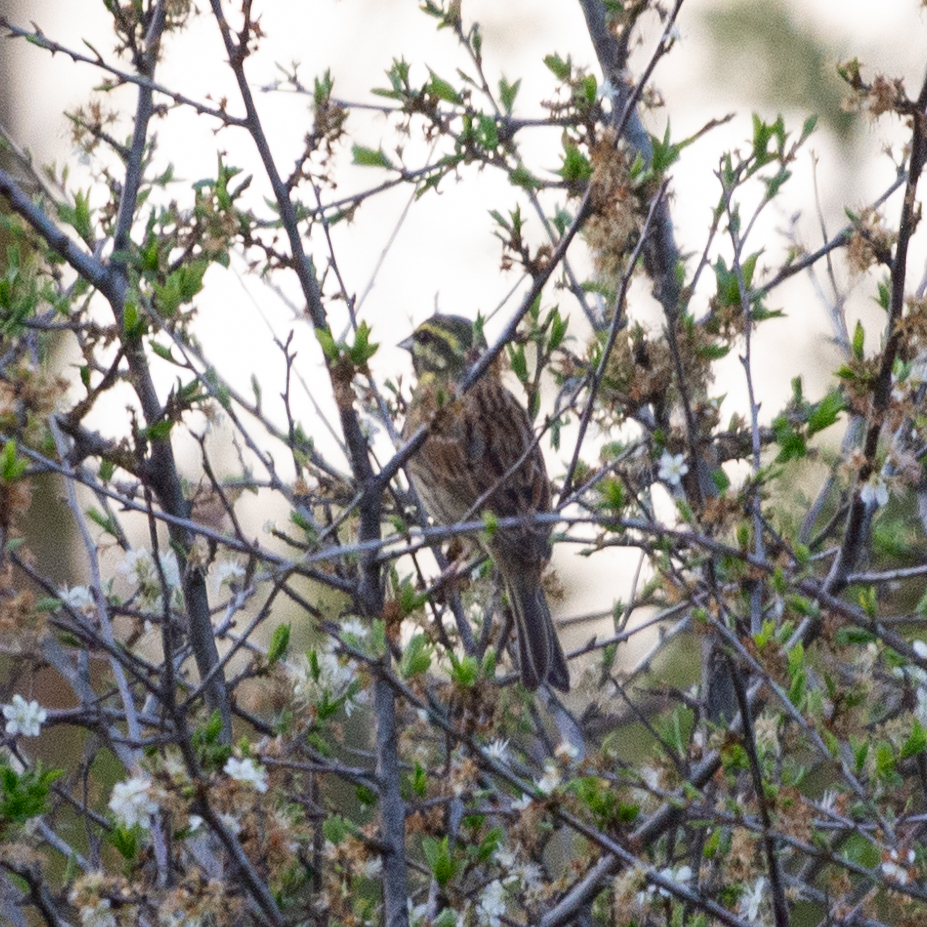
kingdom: Animalia
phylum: Chordata
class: Aves
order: Passeriformes
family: Emberizidae
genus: Emberiza
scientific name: Emberiza cirlus
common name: Cirl bunting
